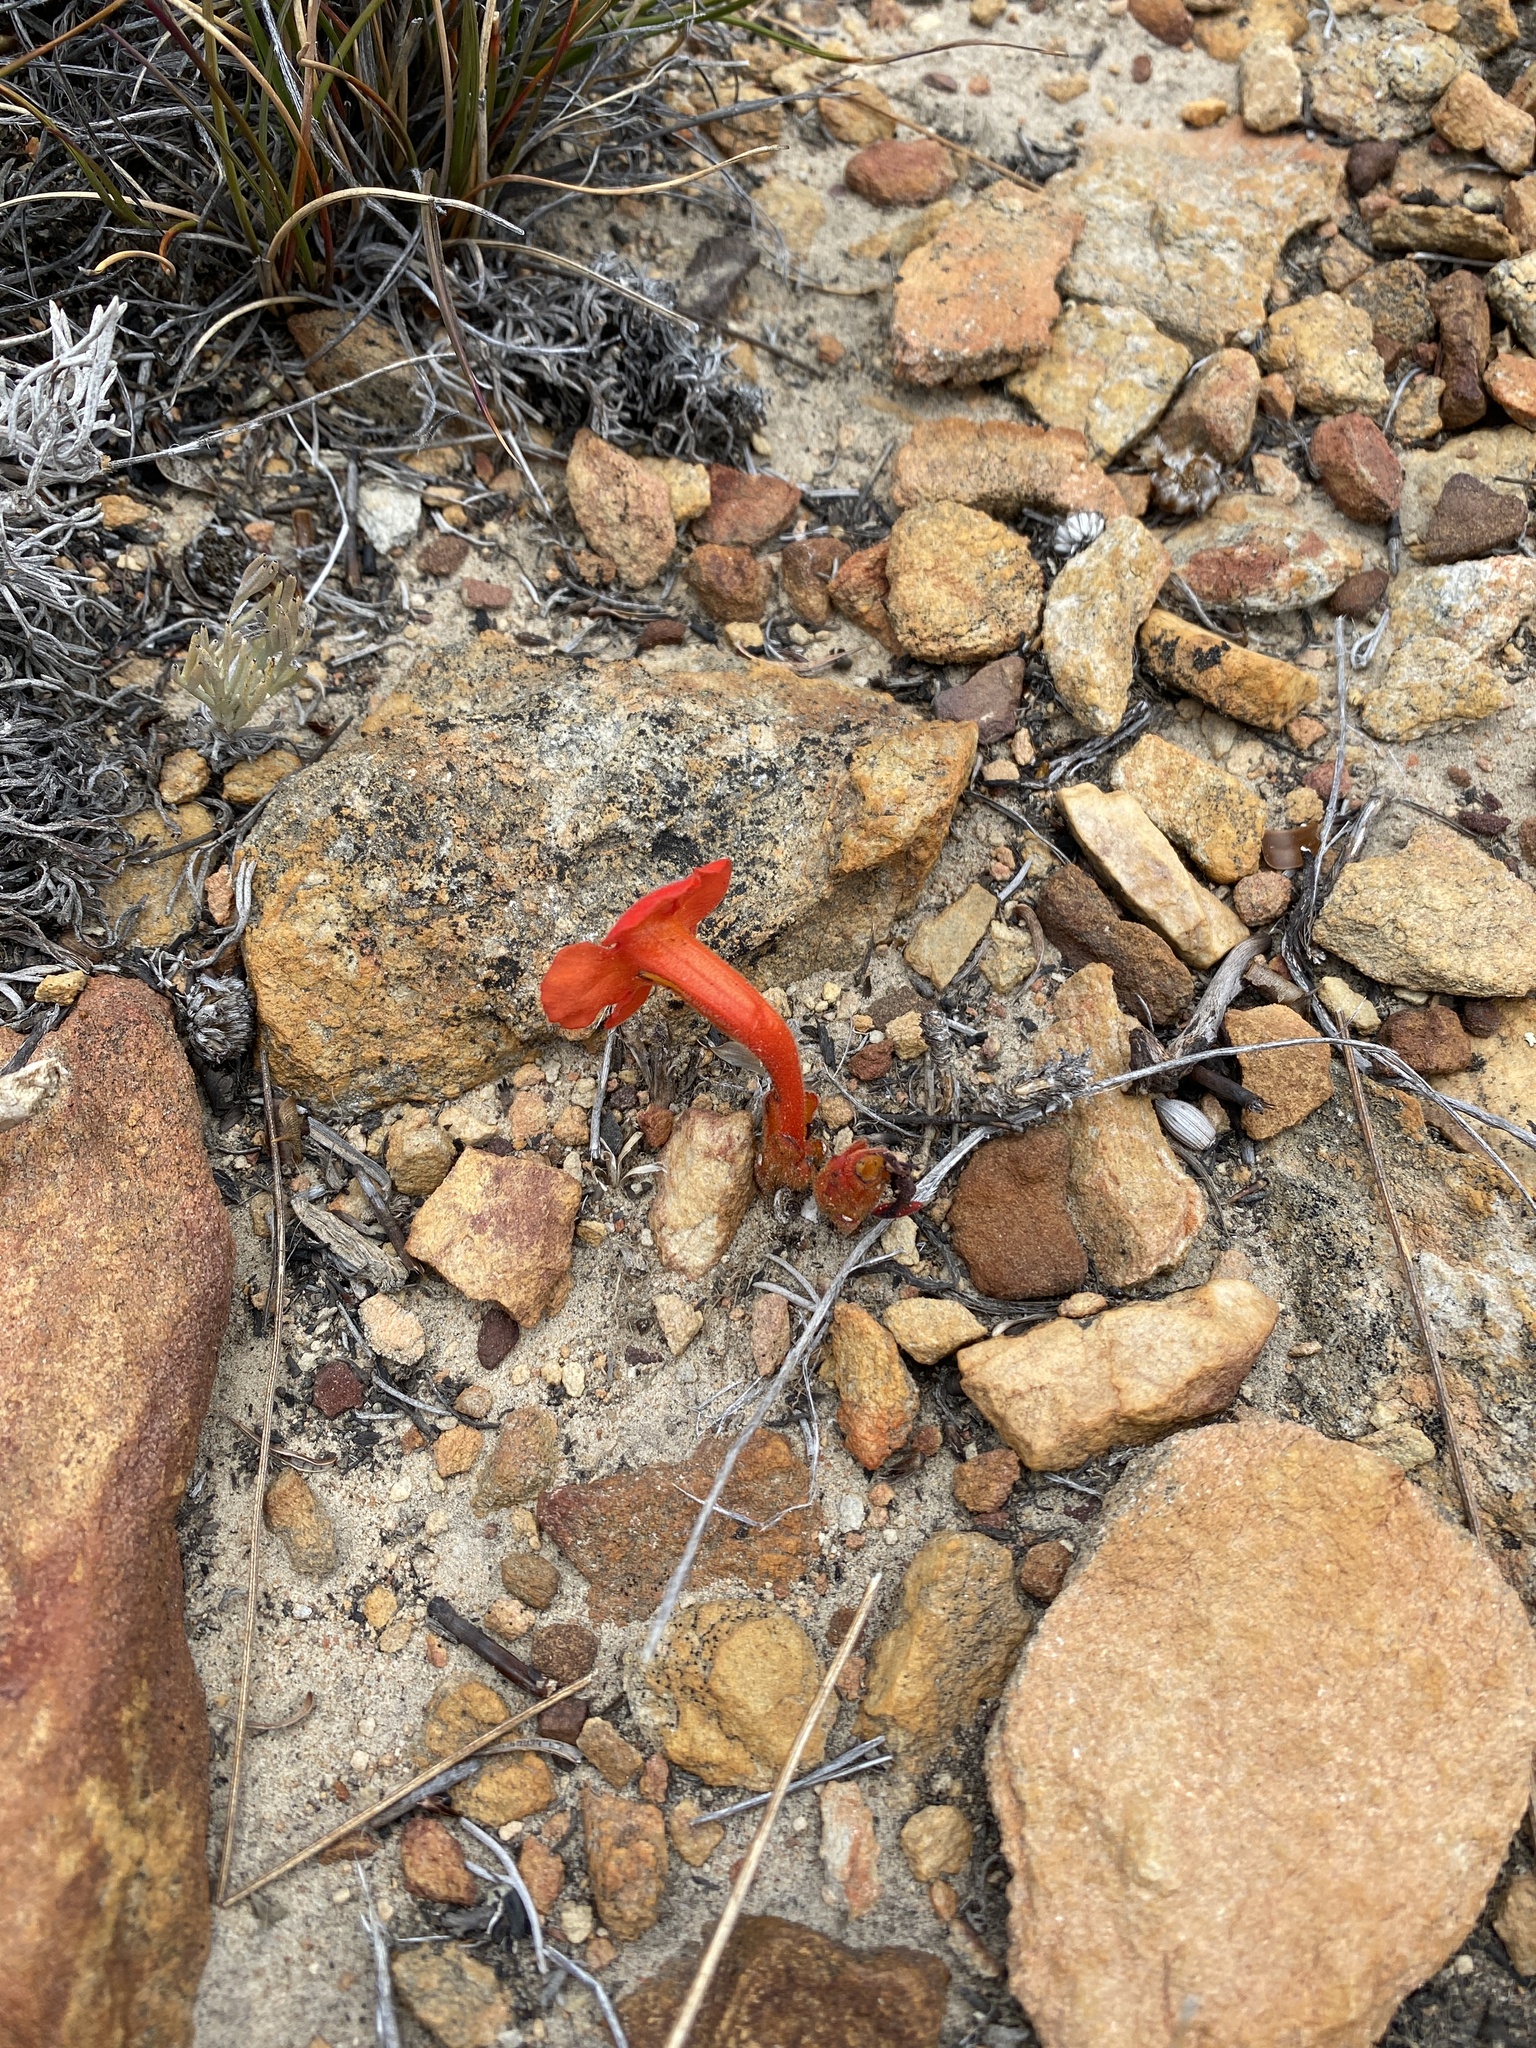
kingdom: Plantae
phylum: Tracheophyta
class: Magnoliopsida
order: Lamiales
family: Orobanchaceae
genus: Harveya
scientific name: Harveya bolusii
